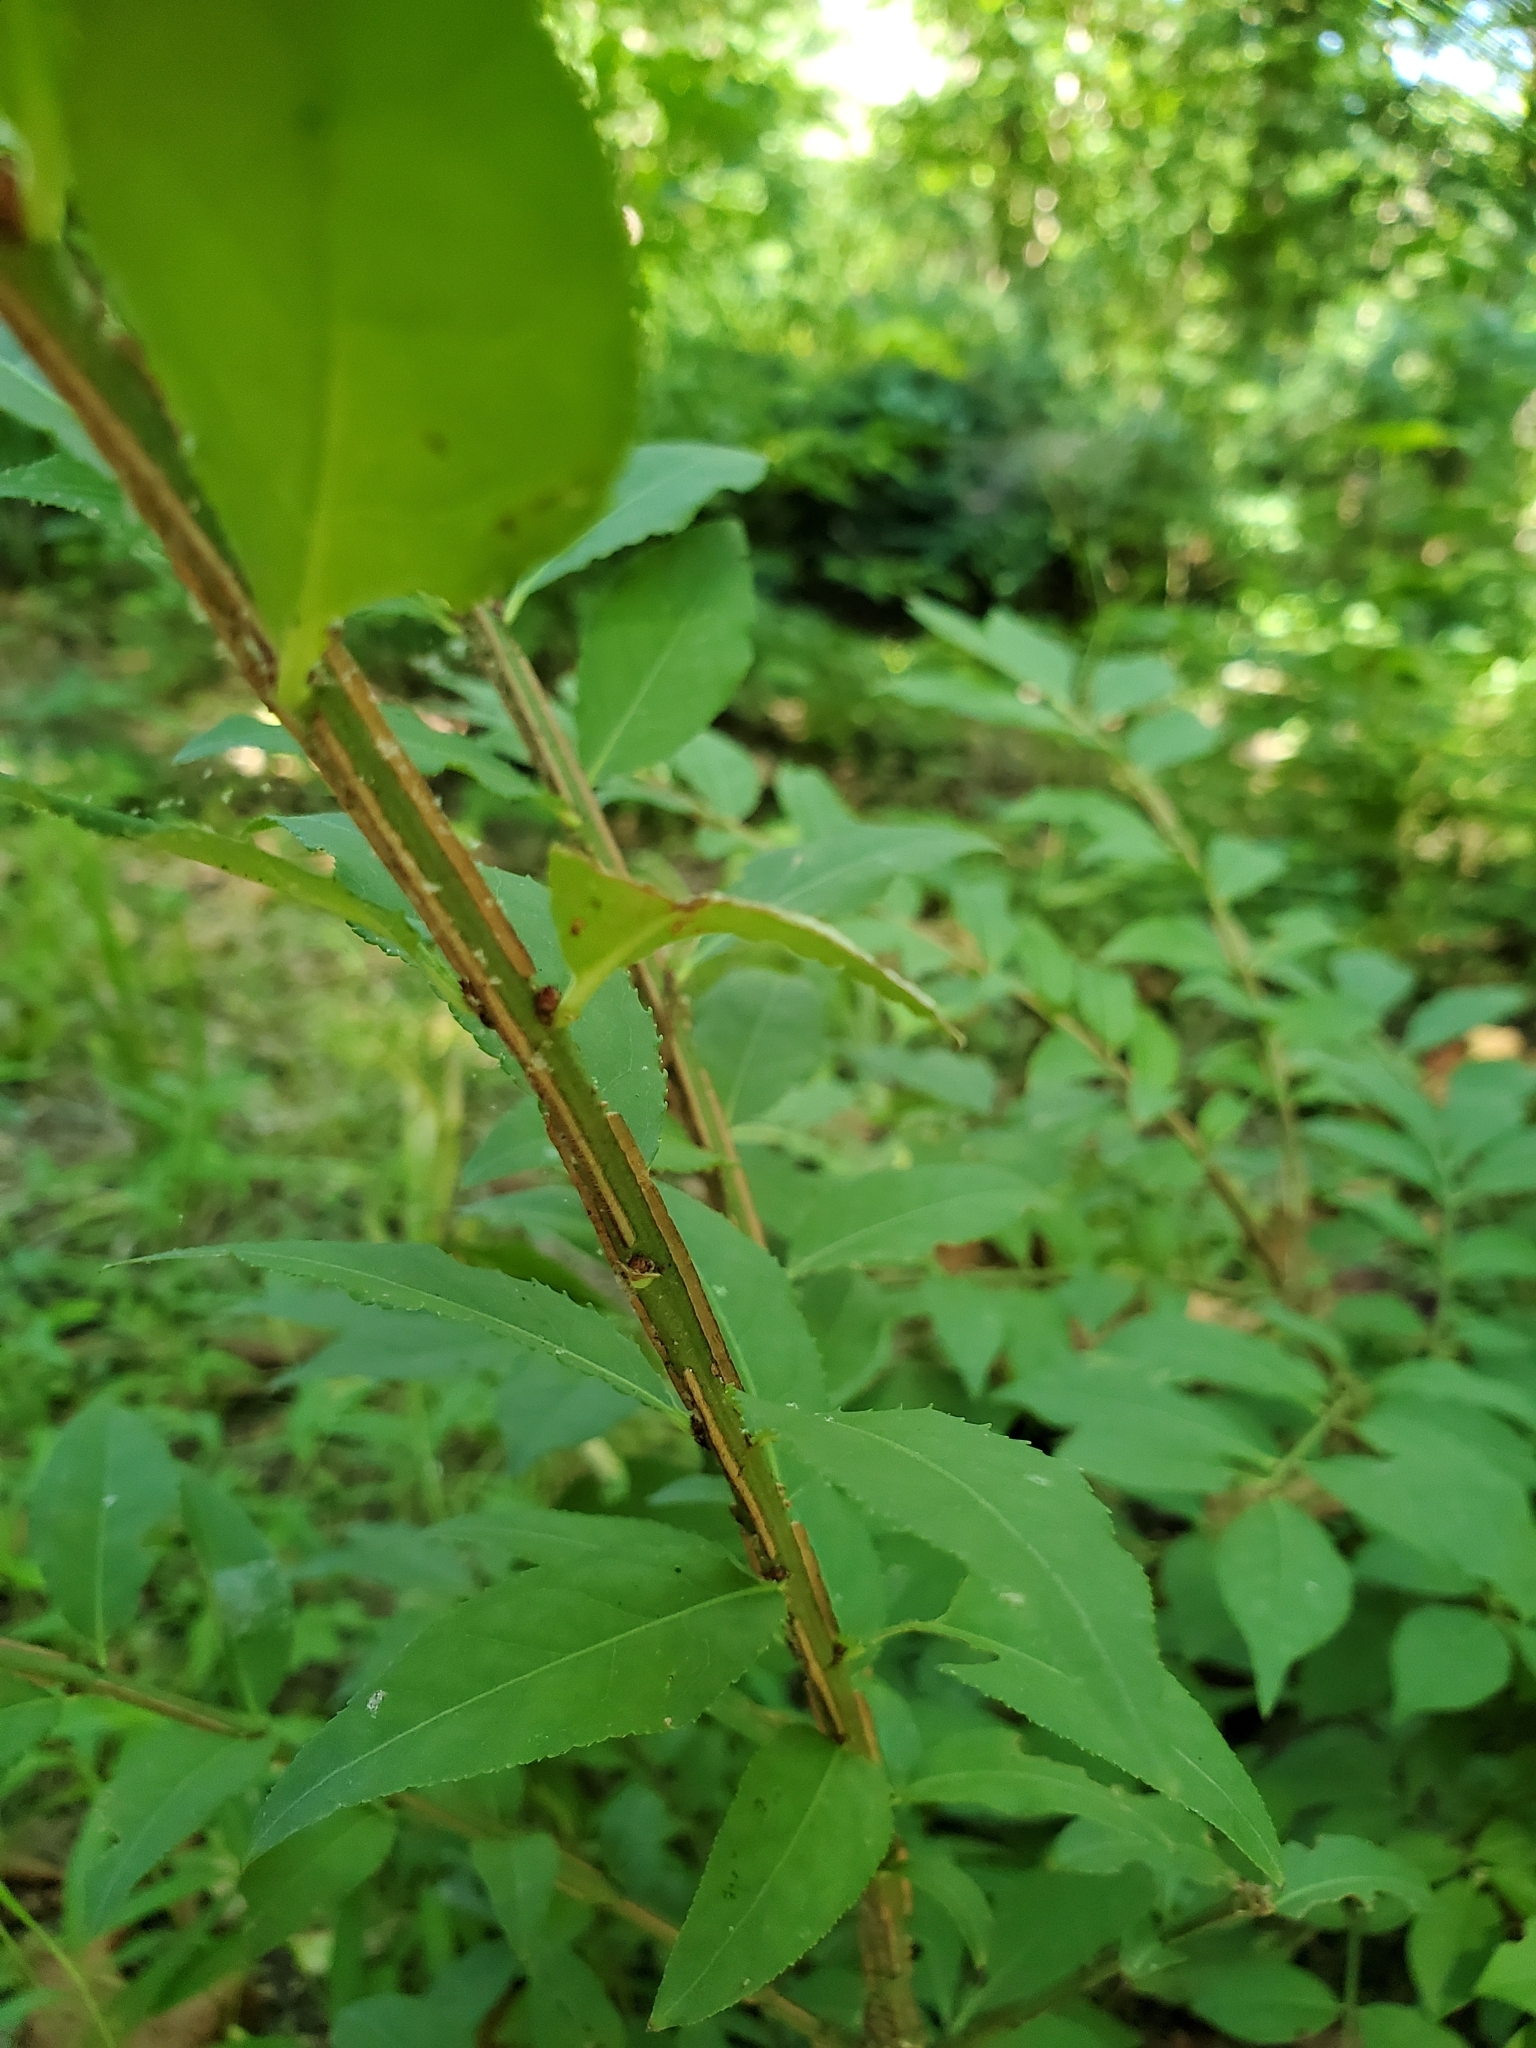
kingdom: Plantae
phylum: Tracheophyta
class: Magnoliopsida
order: Celastrales
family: Celastraceae
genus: Euonymus
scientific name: Euonymus alatus
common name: Winged euonymus
